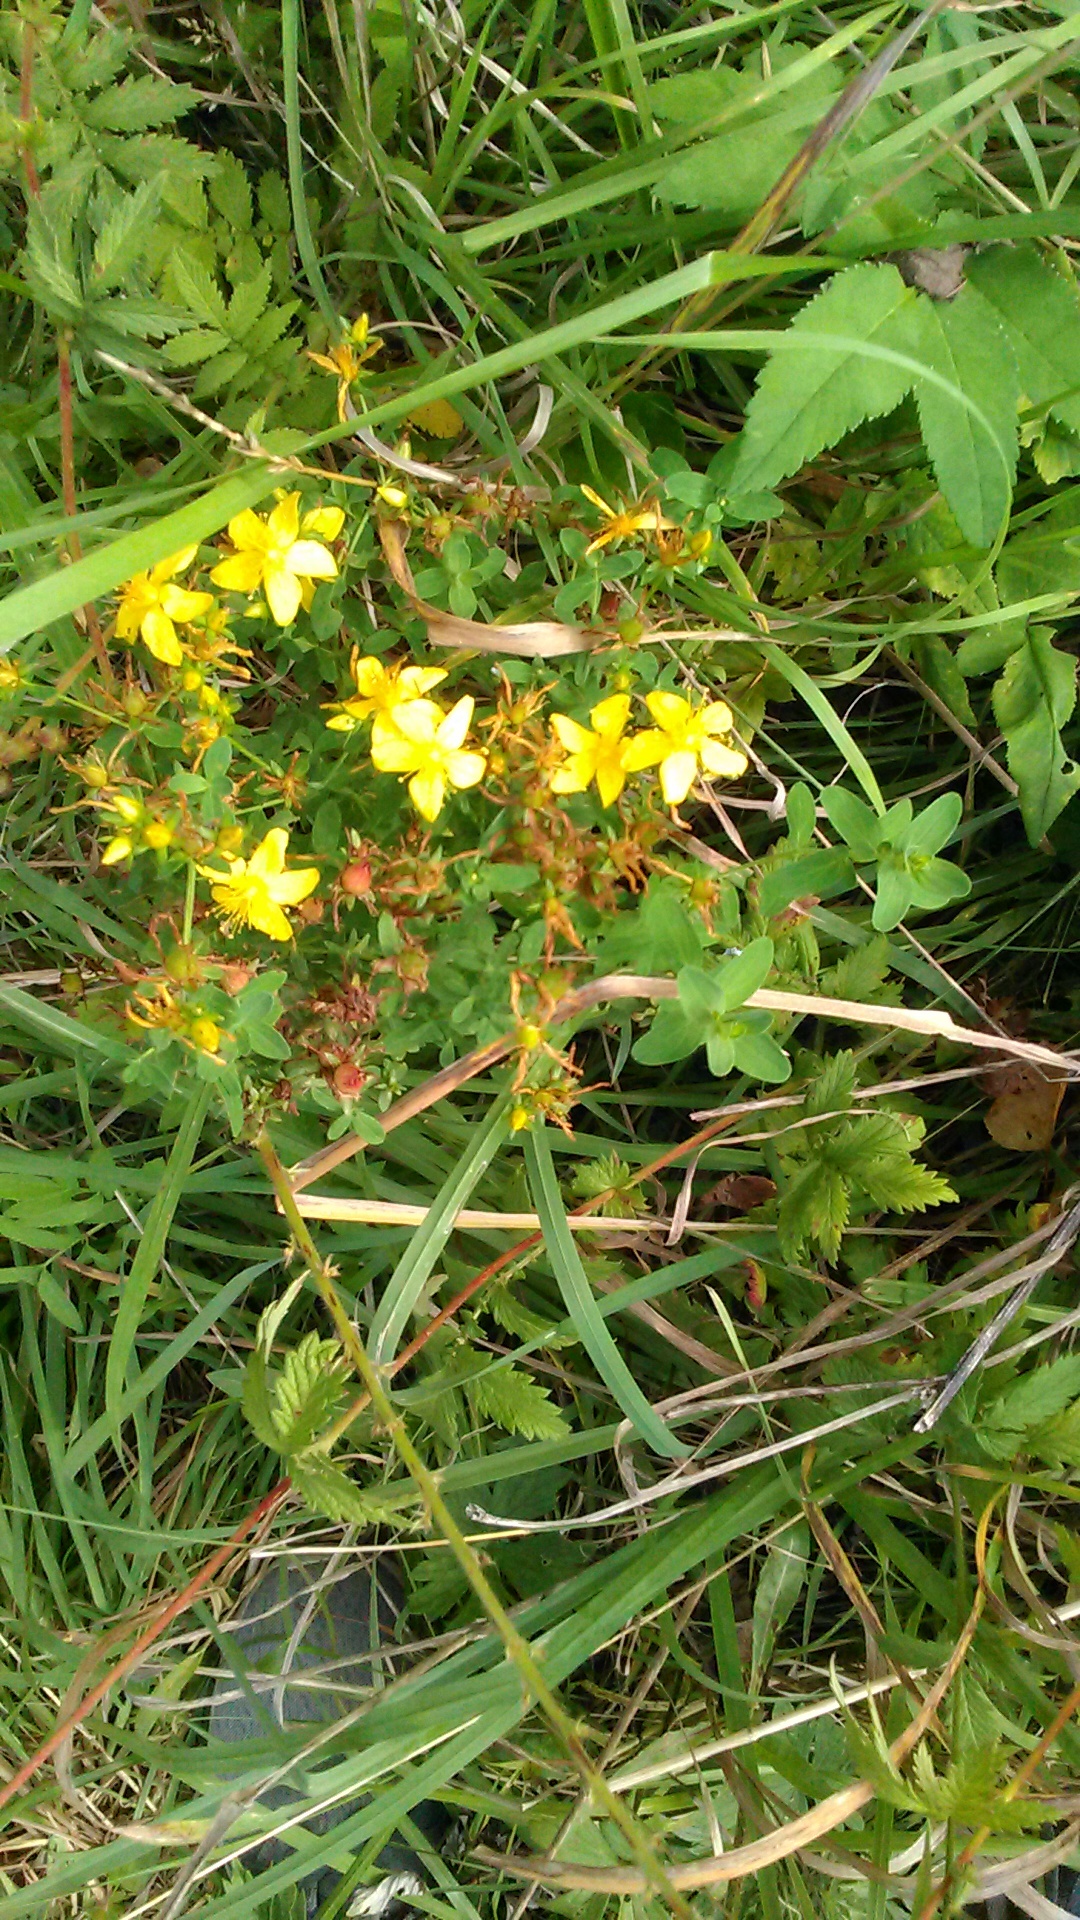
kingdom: Plantae
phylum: Tracheophyta
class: Magnoliopsida
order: Malpighiales
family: Hypericaceae
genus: Hypericum
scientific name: Hypericum perforatum
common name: Common st. johnswort
